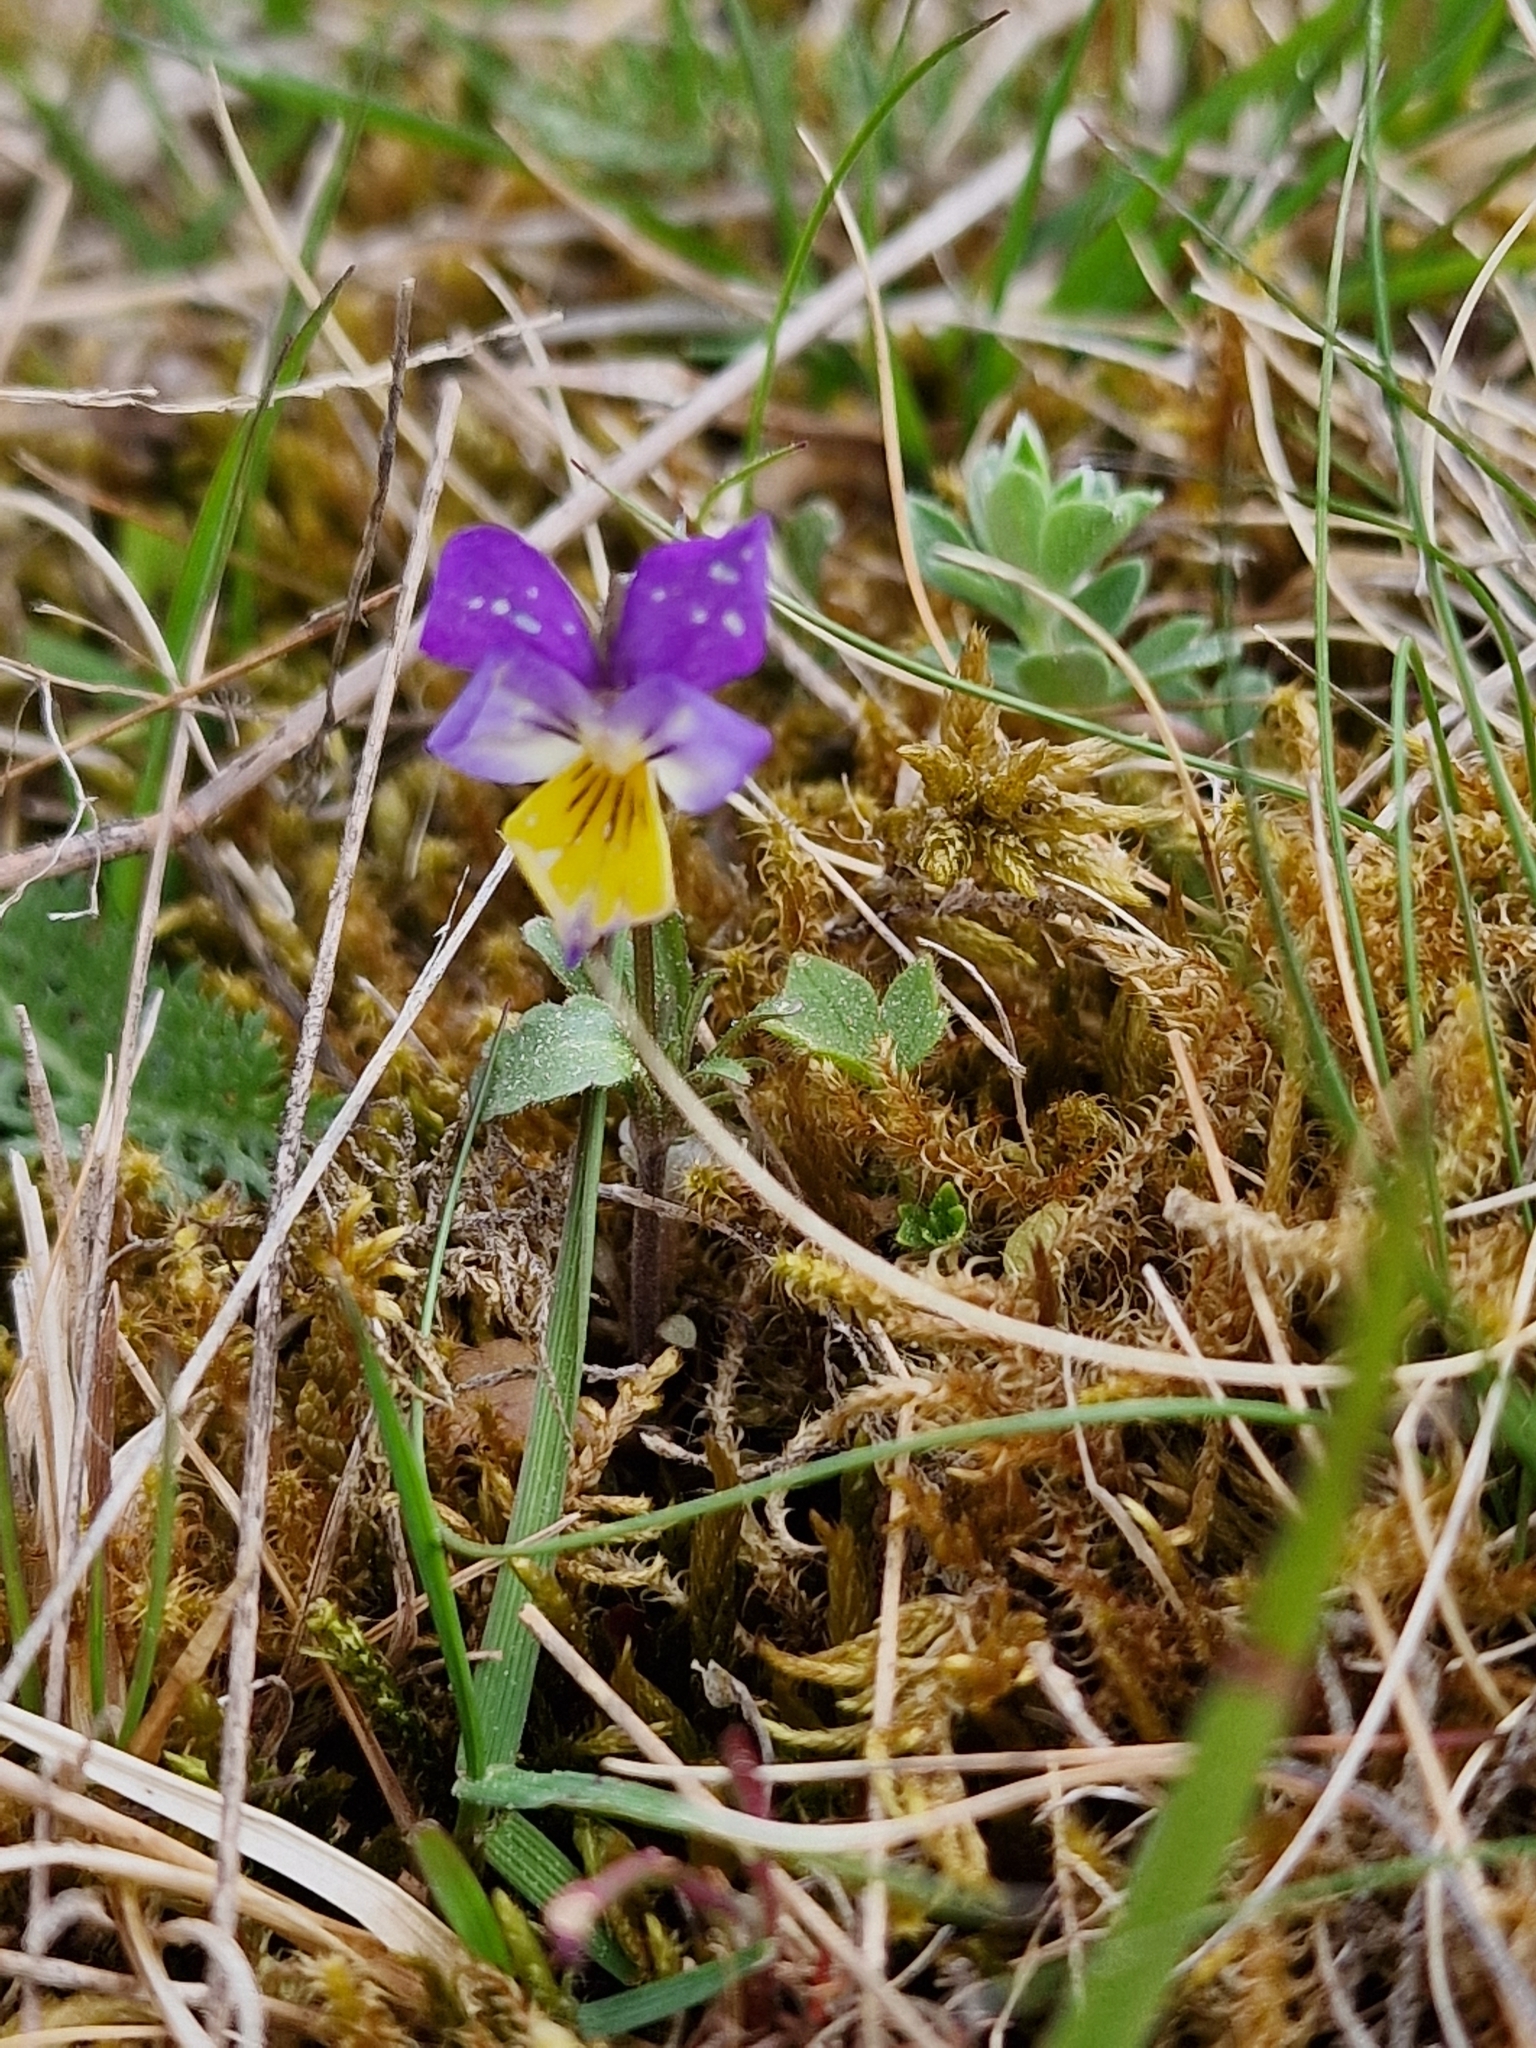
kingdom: Plantae
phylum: Tracheophyta
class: Magnoliopsida
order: Malpighiales
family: Violaceae
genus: Viola
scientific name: Viola tricolor
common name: Pansy
